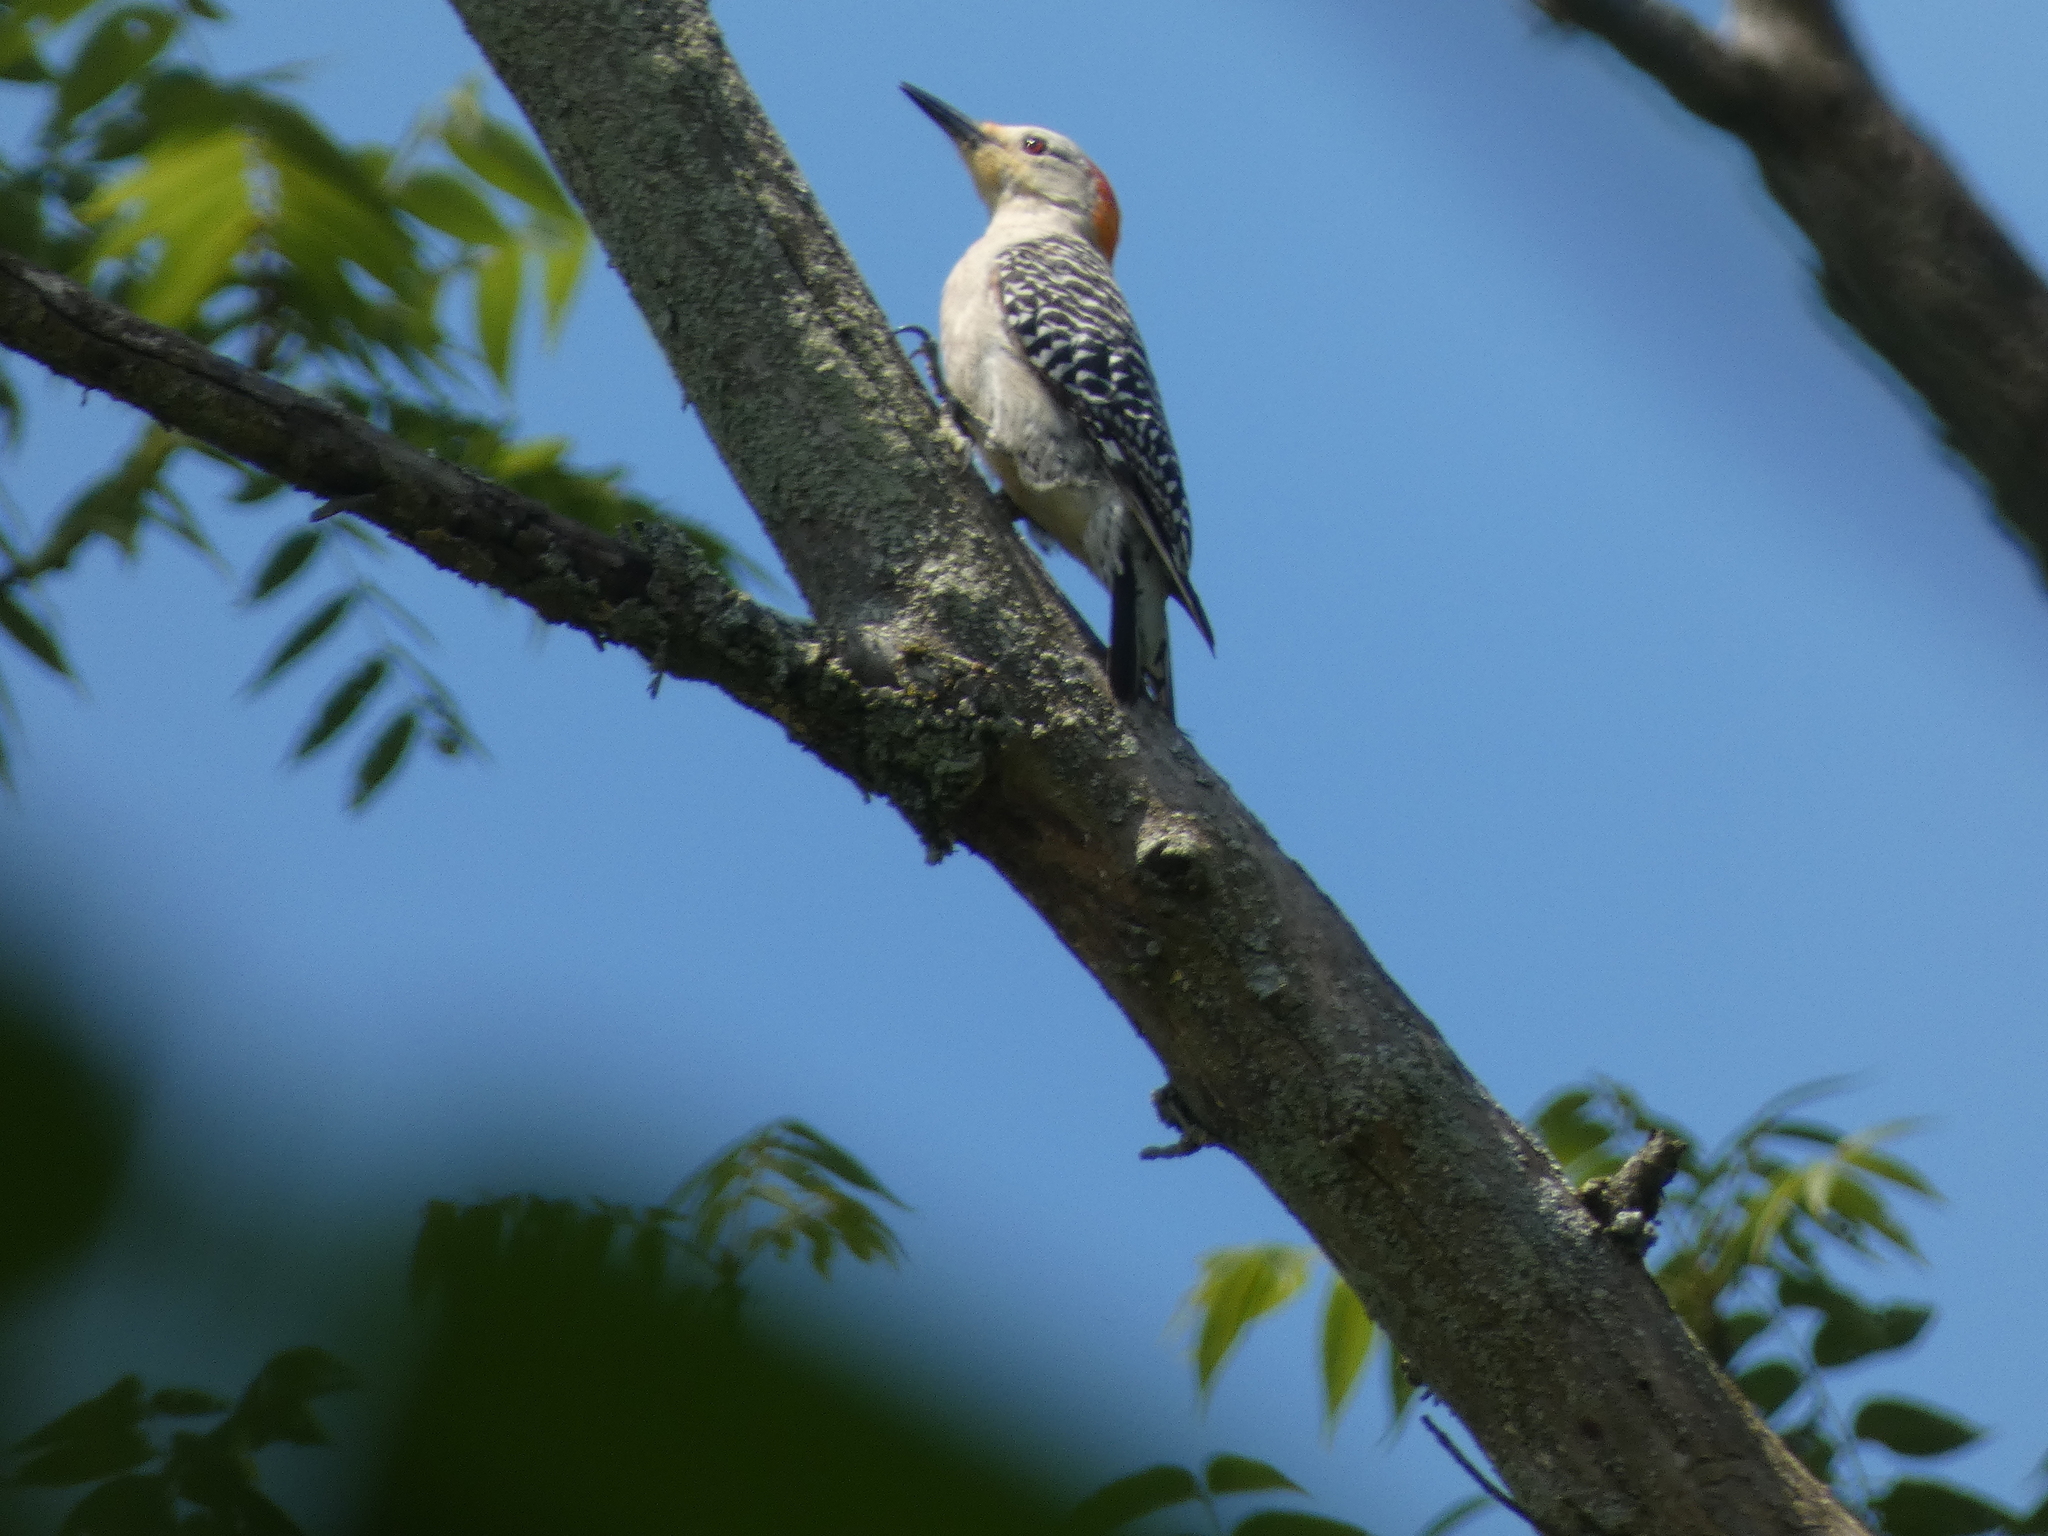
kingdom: Animalia
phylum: Chordata
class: Aves
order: Piciformes
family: Picidae
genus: Melanerpes
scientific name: Melanerpes carolinus
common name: Red-bellied woodpecker
